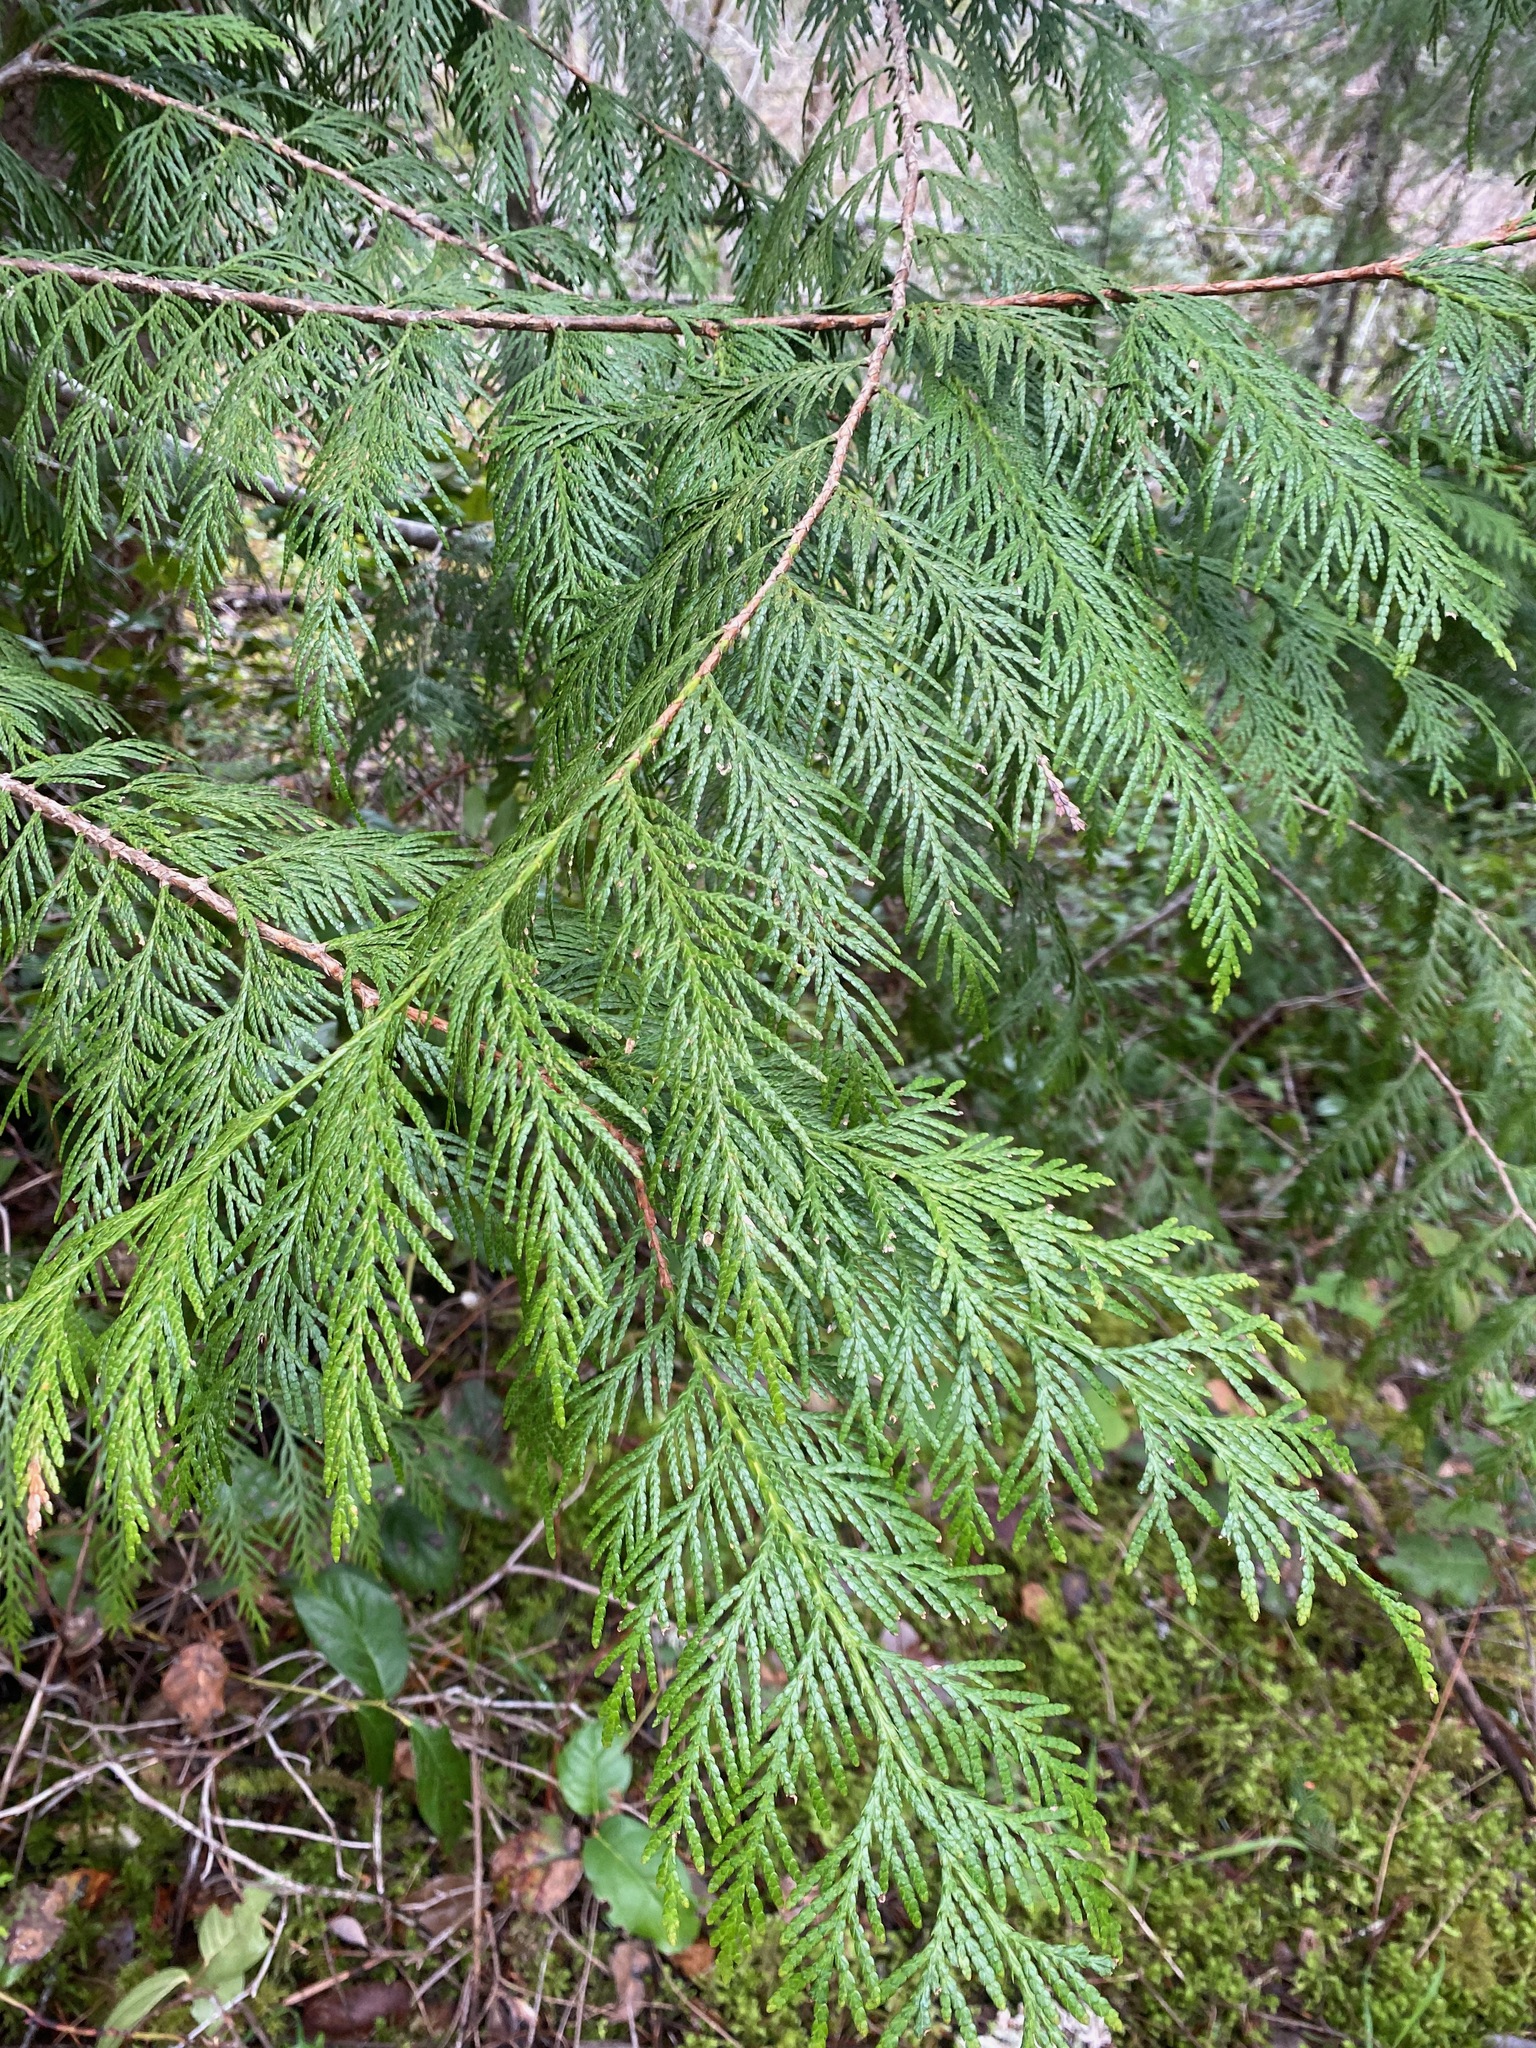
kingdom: Plantae
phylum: Tracheophyta
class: Pinopsida
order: Pinales
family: Cupressaceae
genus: Thuja
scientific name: Thuja plicata
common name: Western red-cedar
